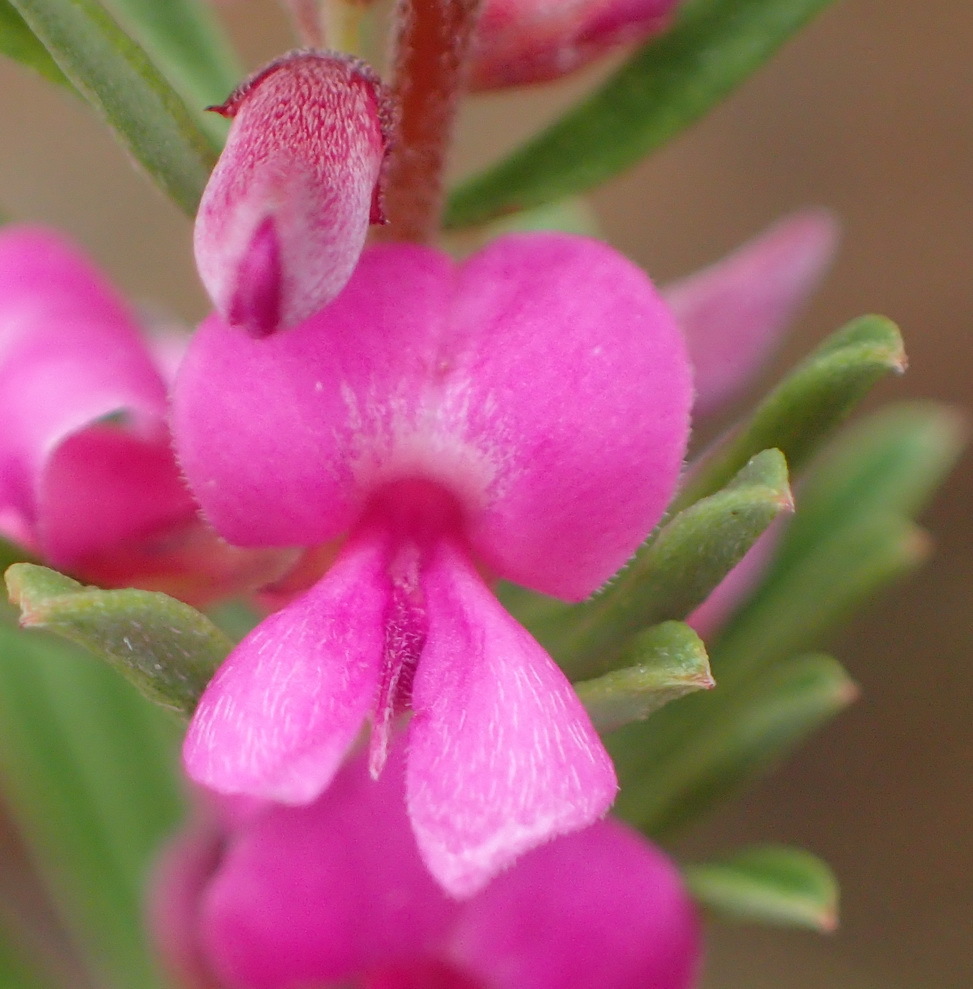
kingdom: Plantae
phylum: Tracheophyta
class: Magnoliopsida
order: Fabales
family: Fabaceae
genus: Indigofera
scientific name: Indigofera pappei
